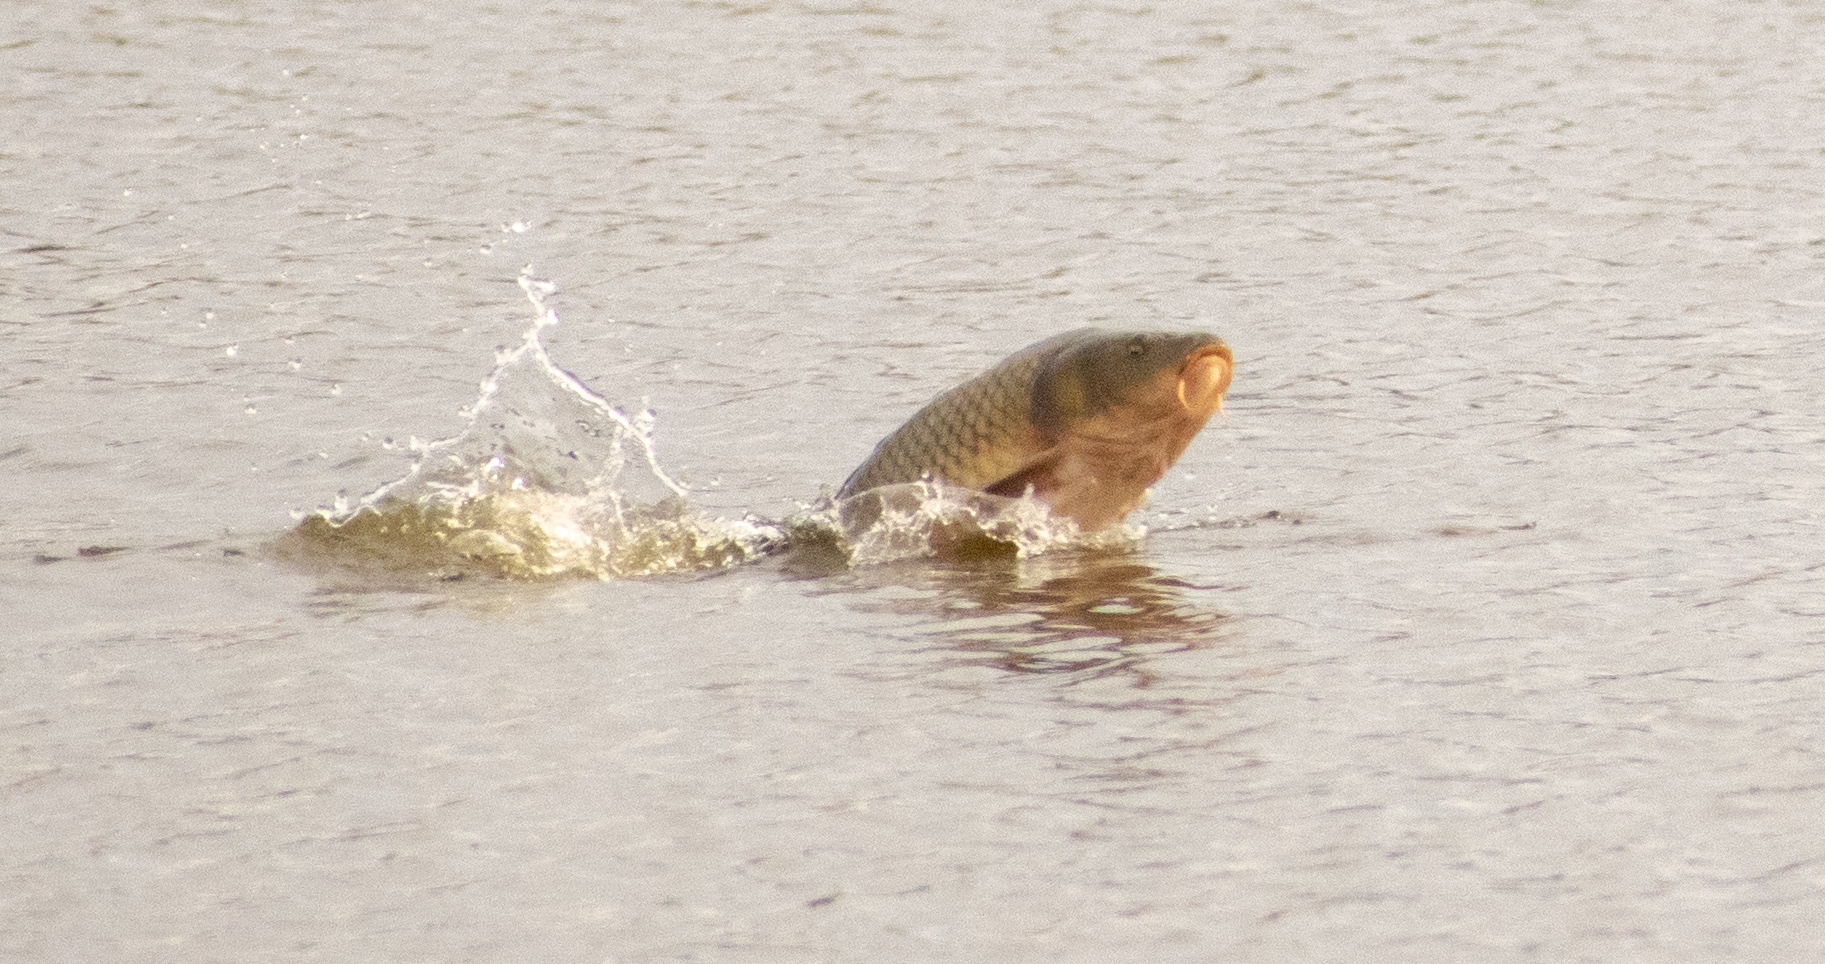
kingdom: Animalia
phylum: Chordata
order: Cypriniformes
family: Cyprinidae
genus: Cyprinus
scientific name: Cyprinus carpio
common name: Common carp
